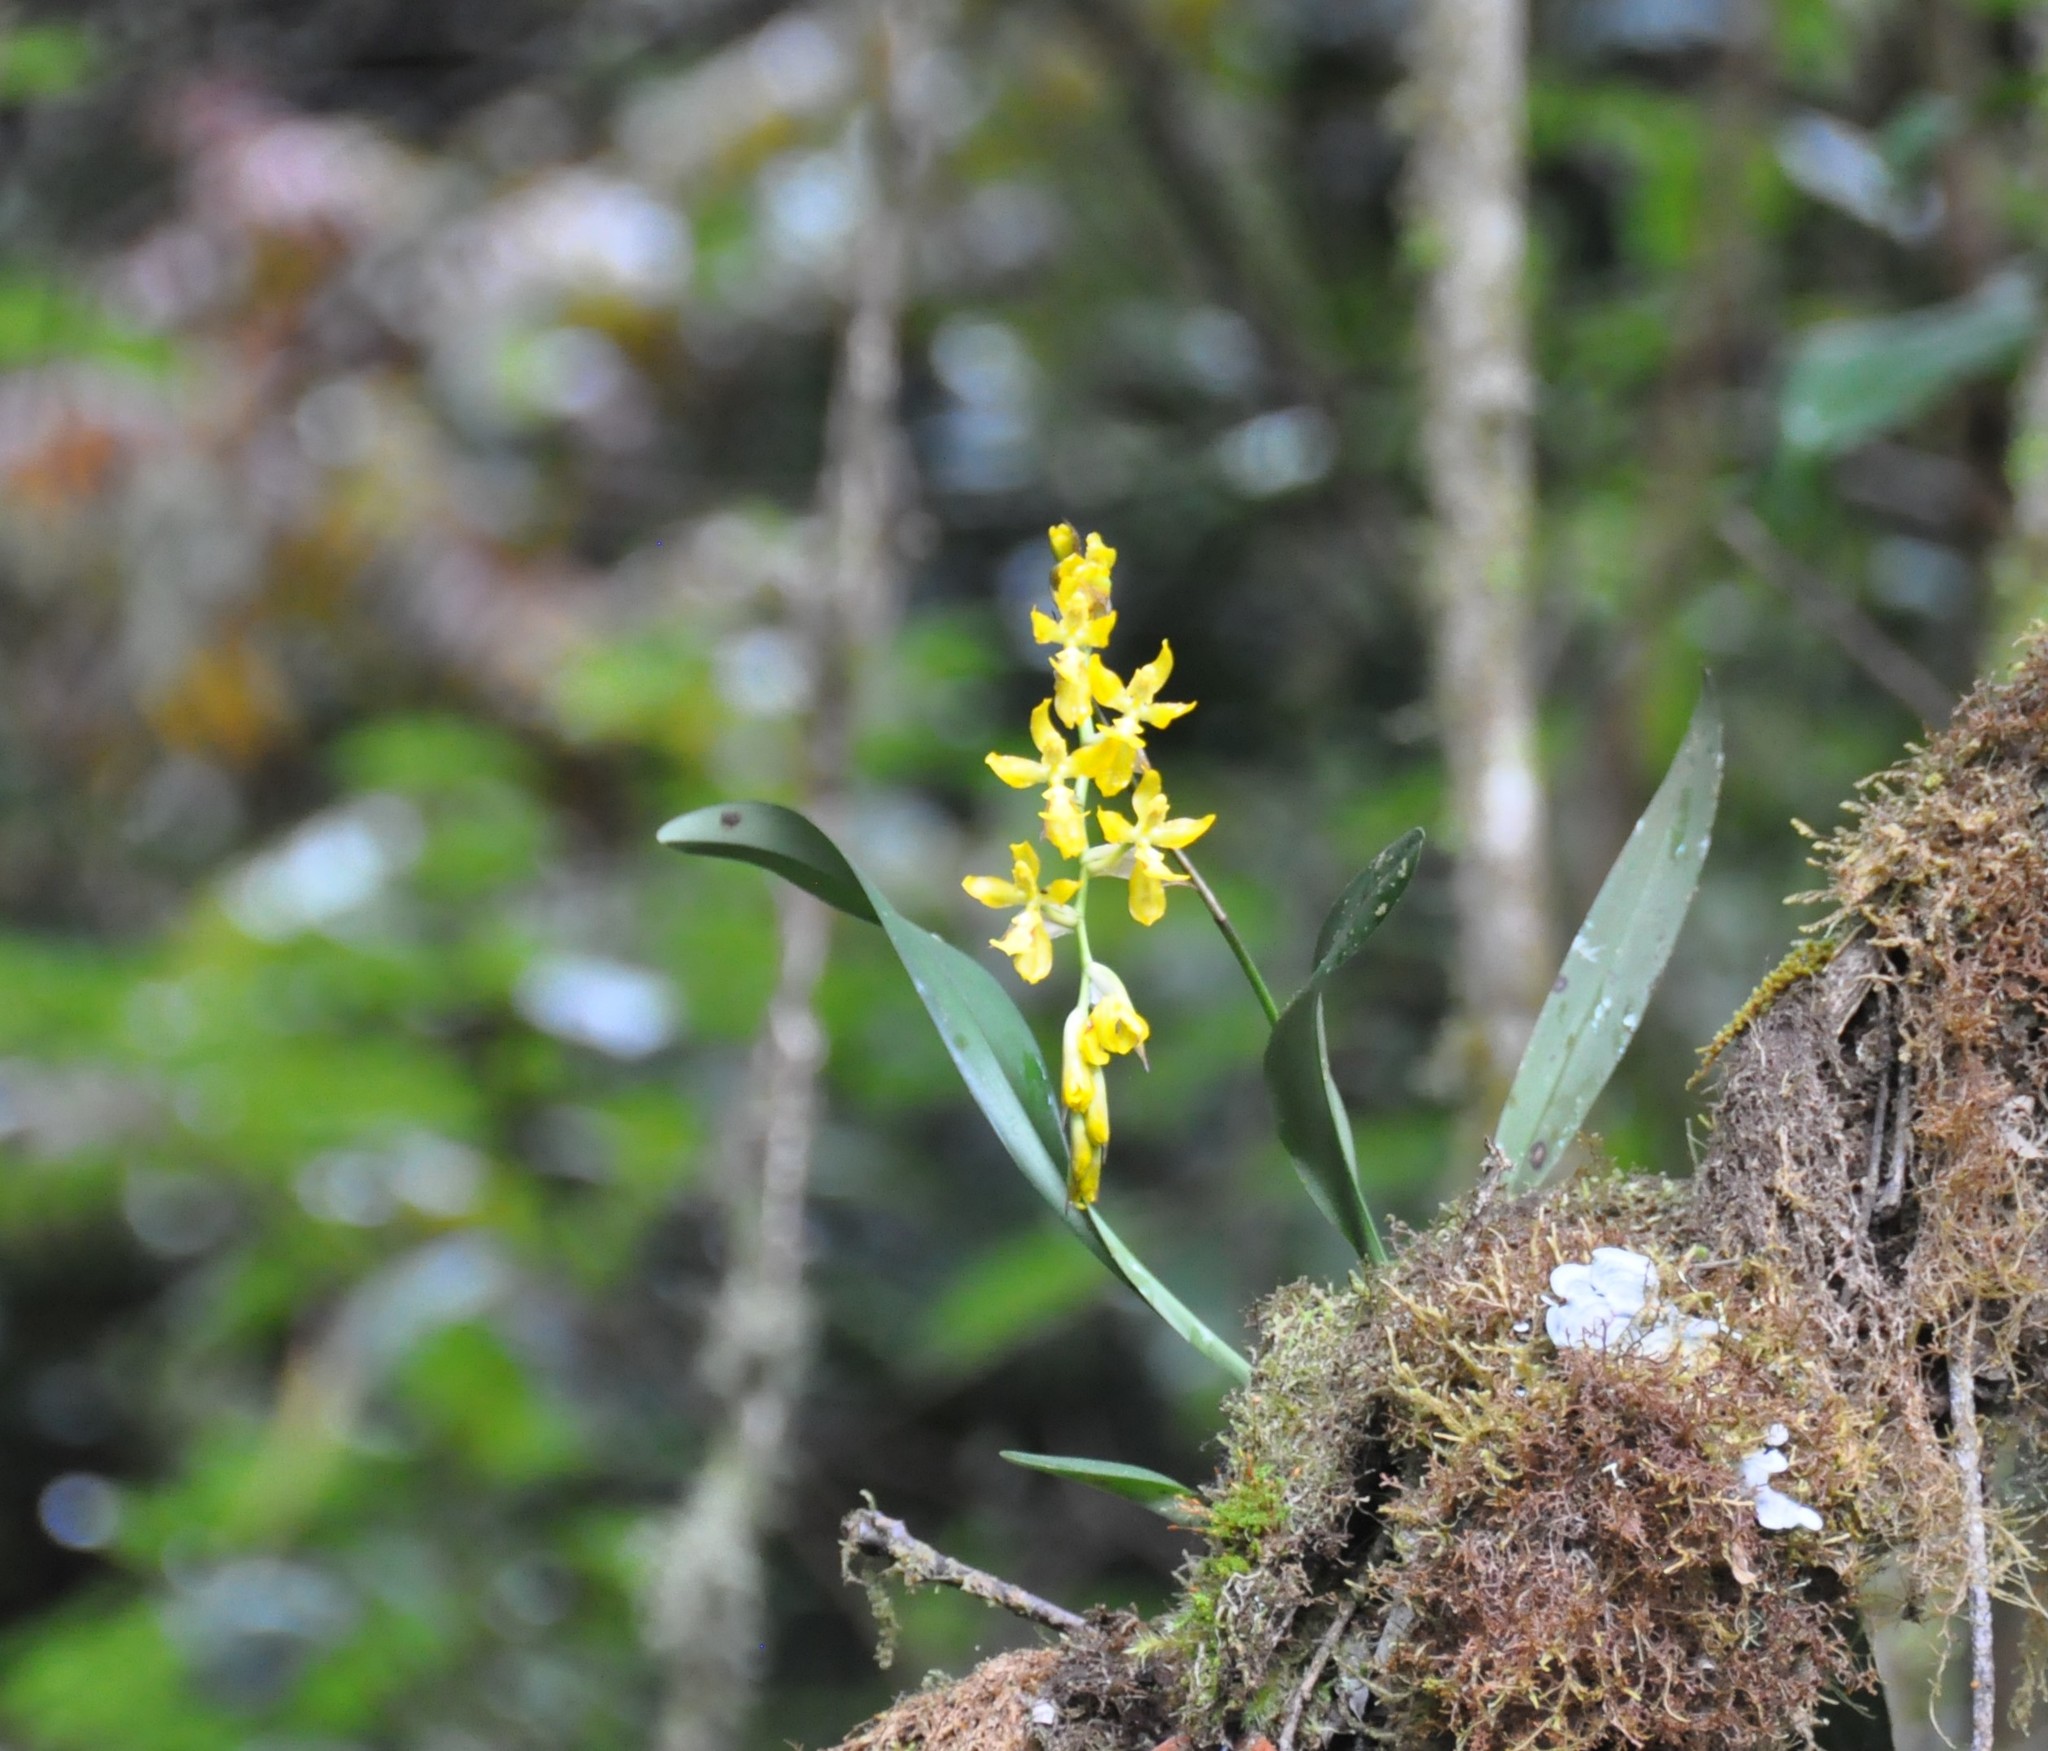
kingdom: Plantae
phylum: Tracheophyta
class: Liliopsida
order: Asparagales
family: Orchidaceae
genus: Oncidium
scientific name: Oncidium imitans
